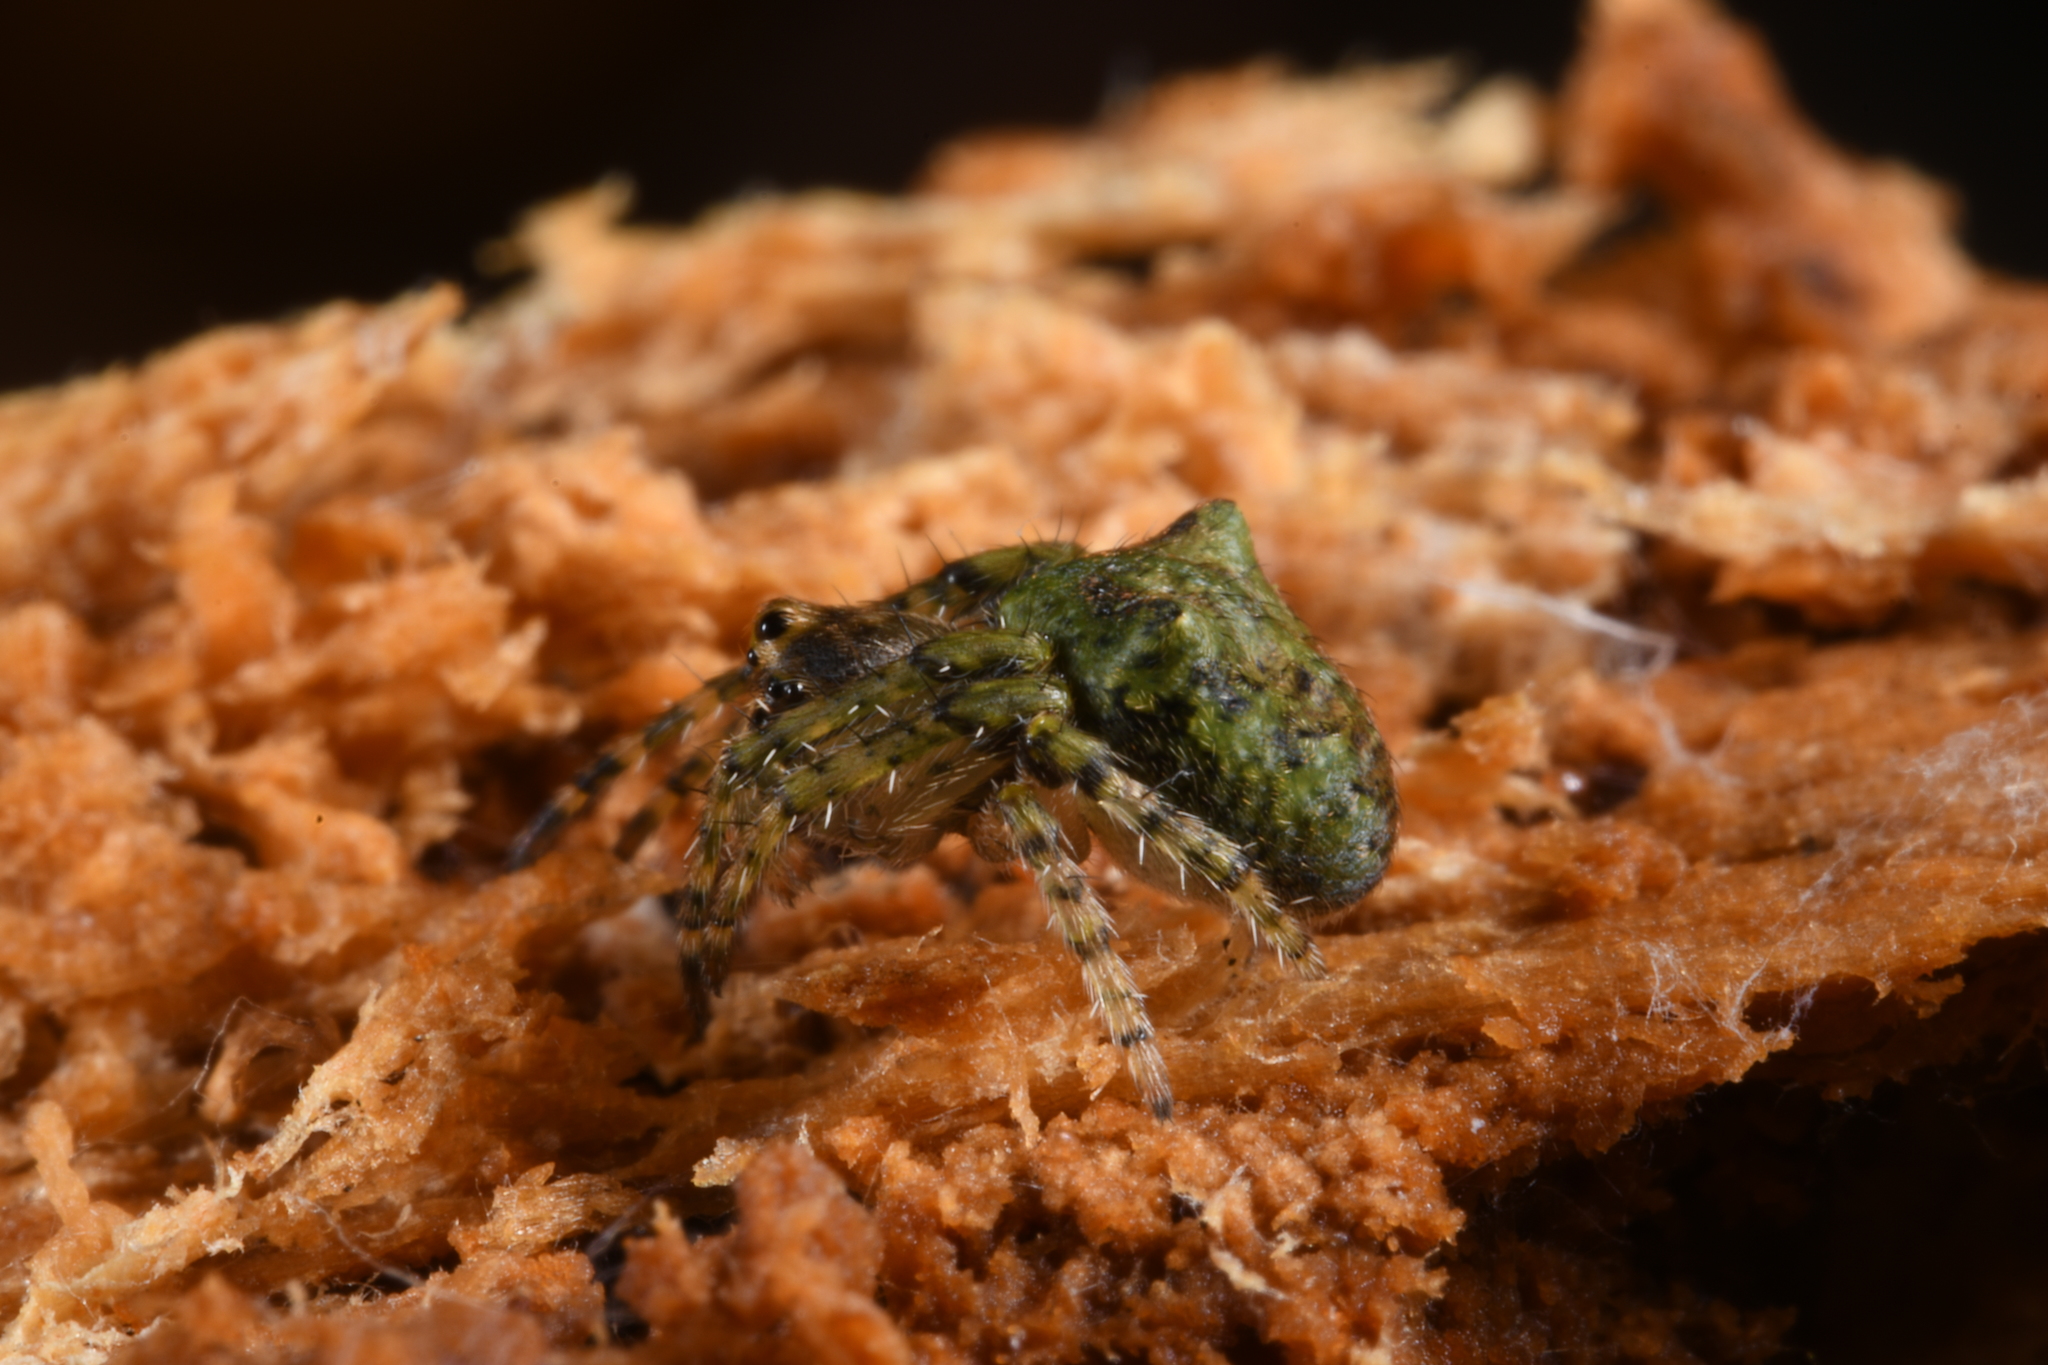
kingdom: Animalia
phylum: Arthropoda
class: Arachnida
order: Araneae
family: Araneidae
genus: Gibbaranea
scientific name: Gibbaranea gibbosa
